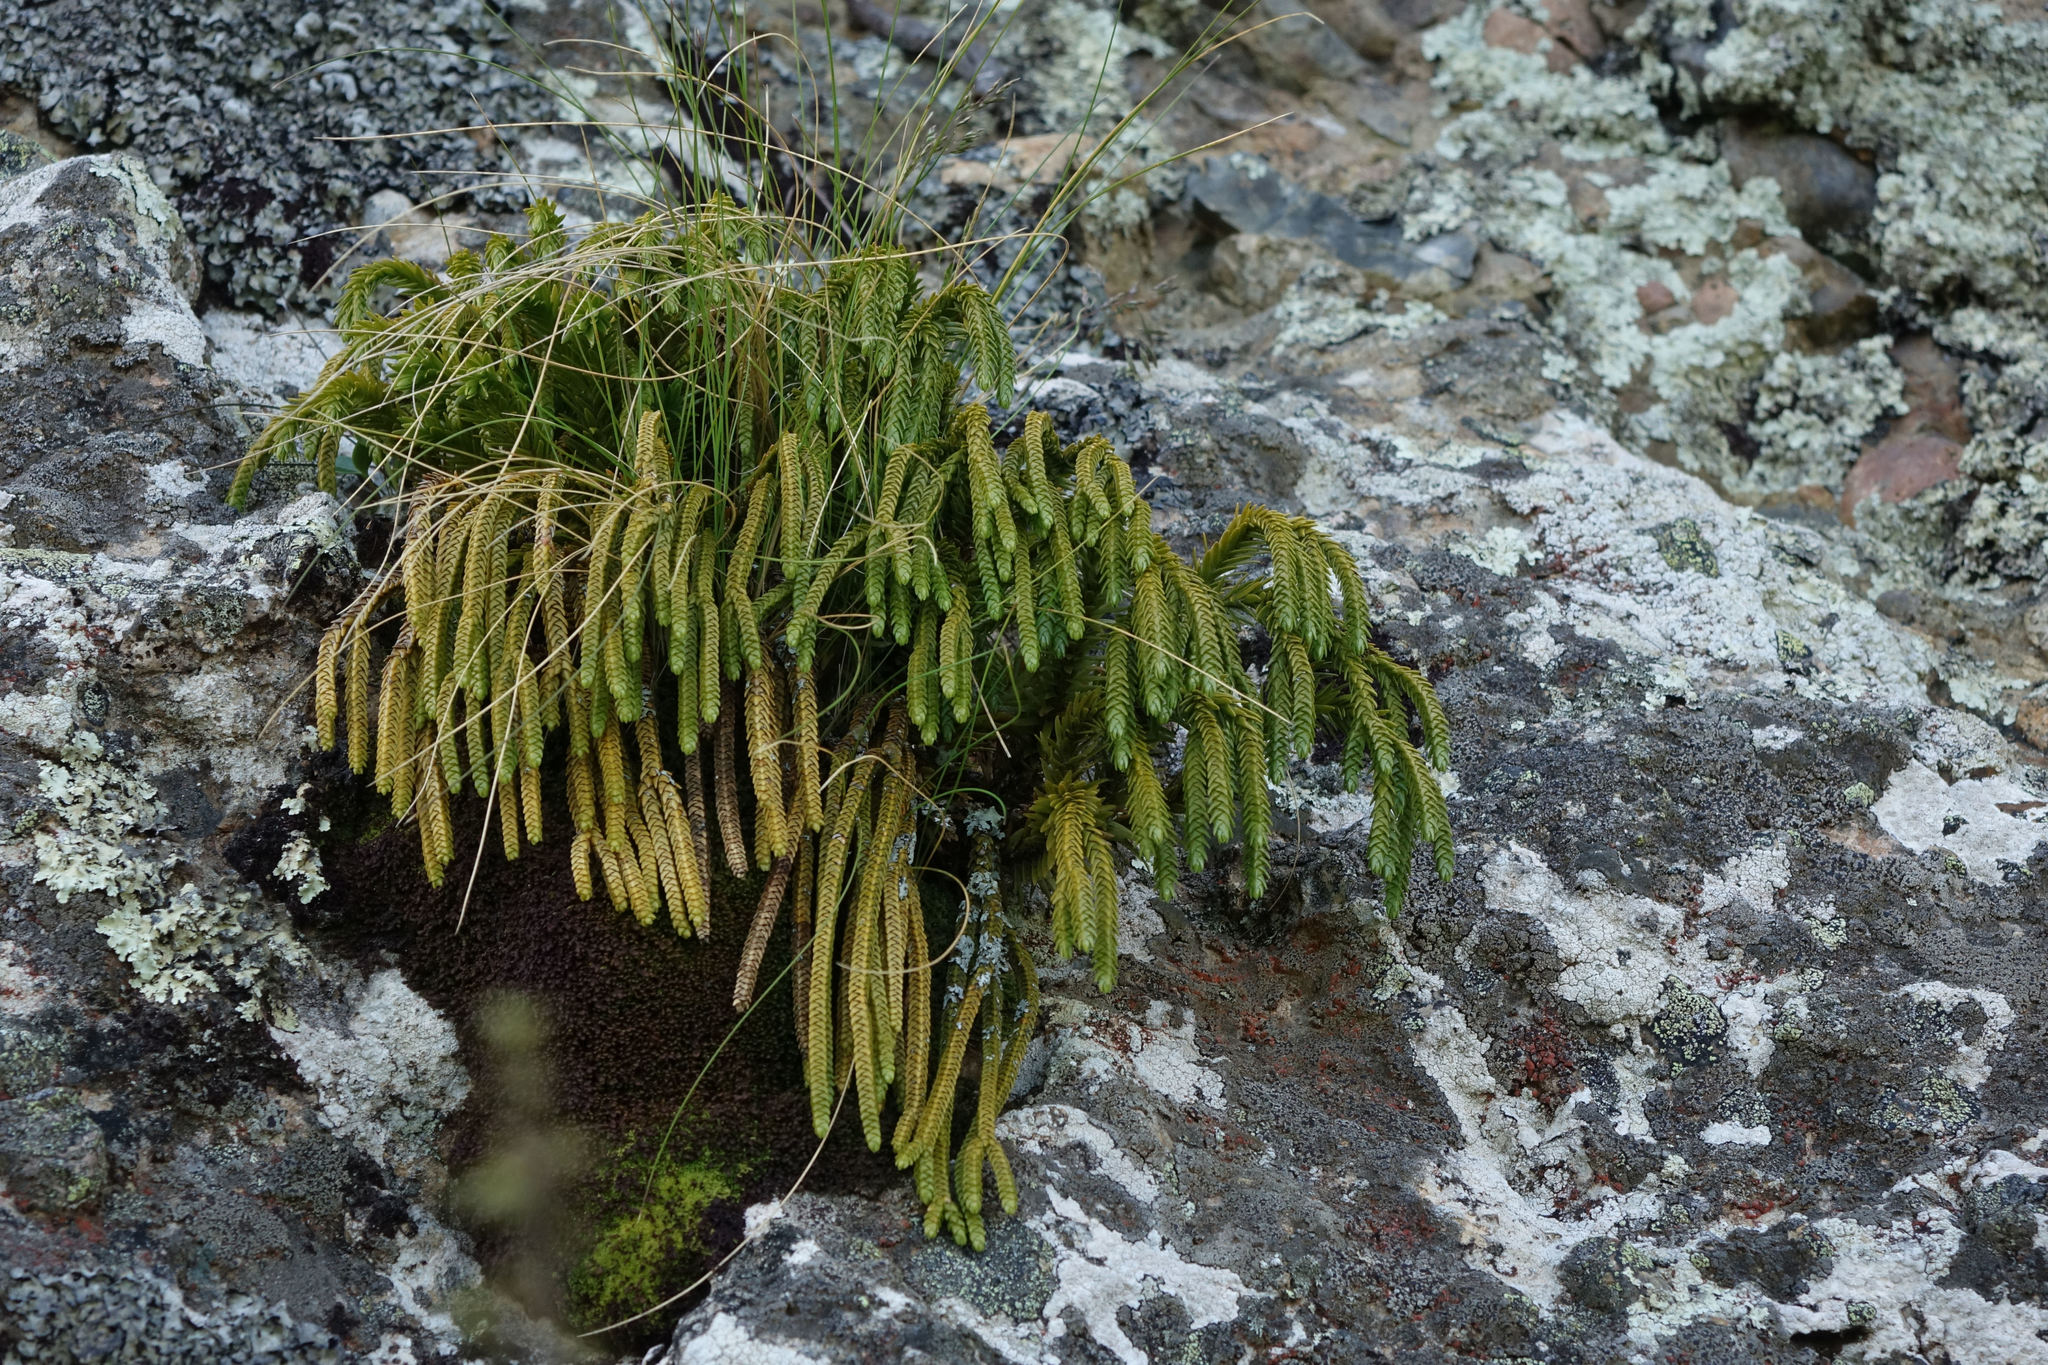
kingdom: Plantae
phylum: Tracheophyta
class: Lycopodiopsida
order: Lycopodiales
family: Lycopodiaceae
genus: Phlegmariurus
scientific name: Phlegmariurus varius
